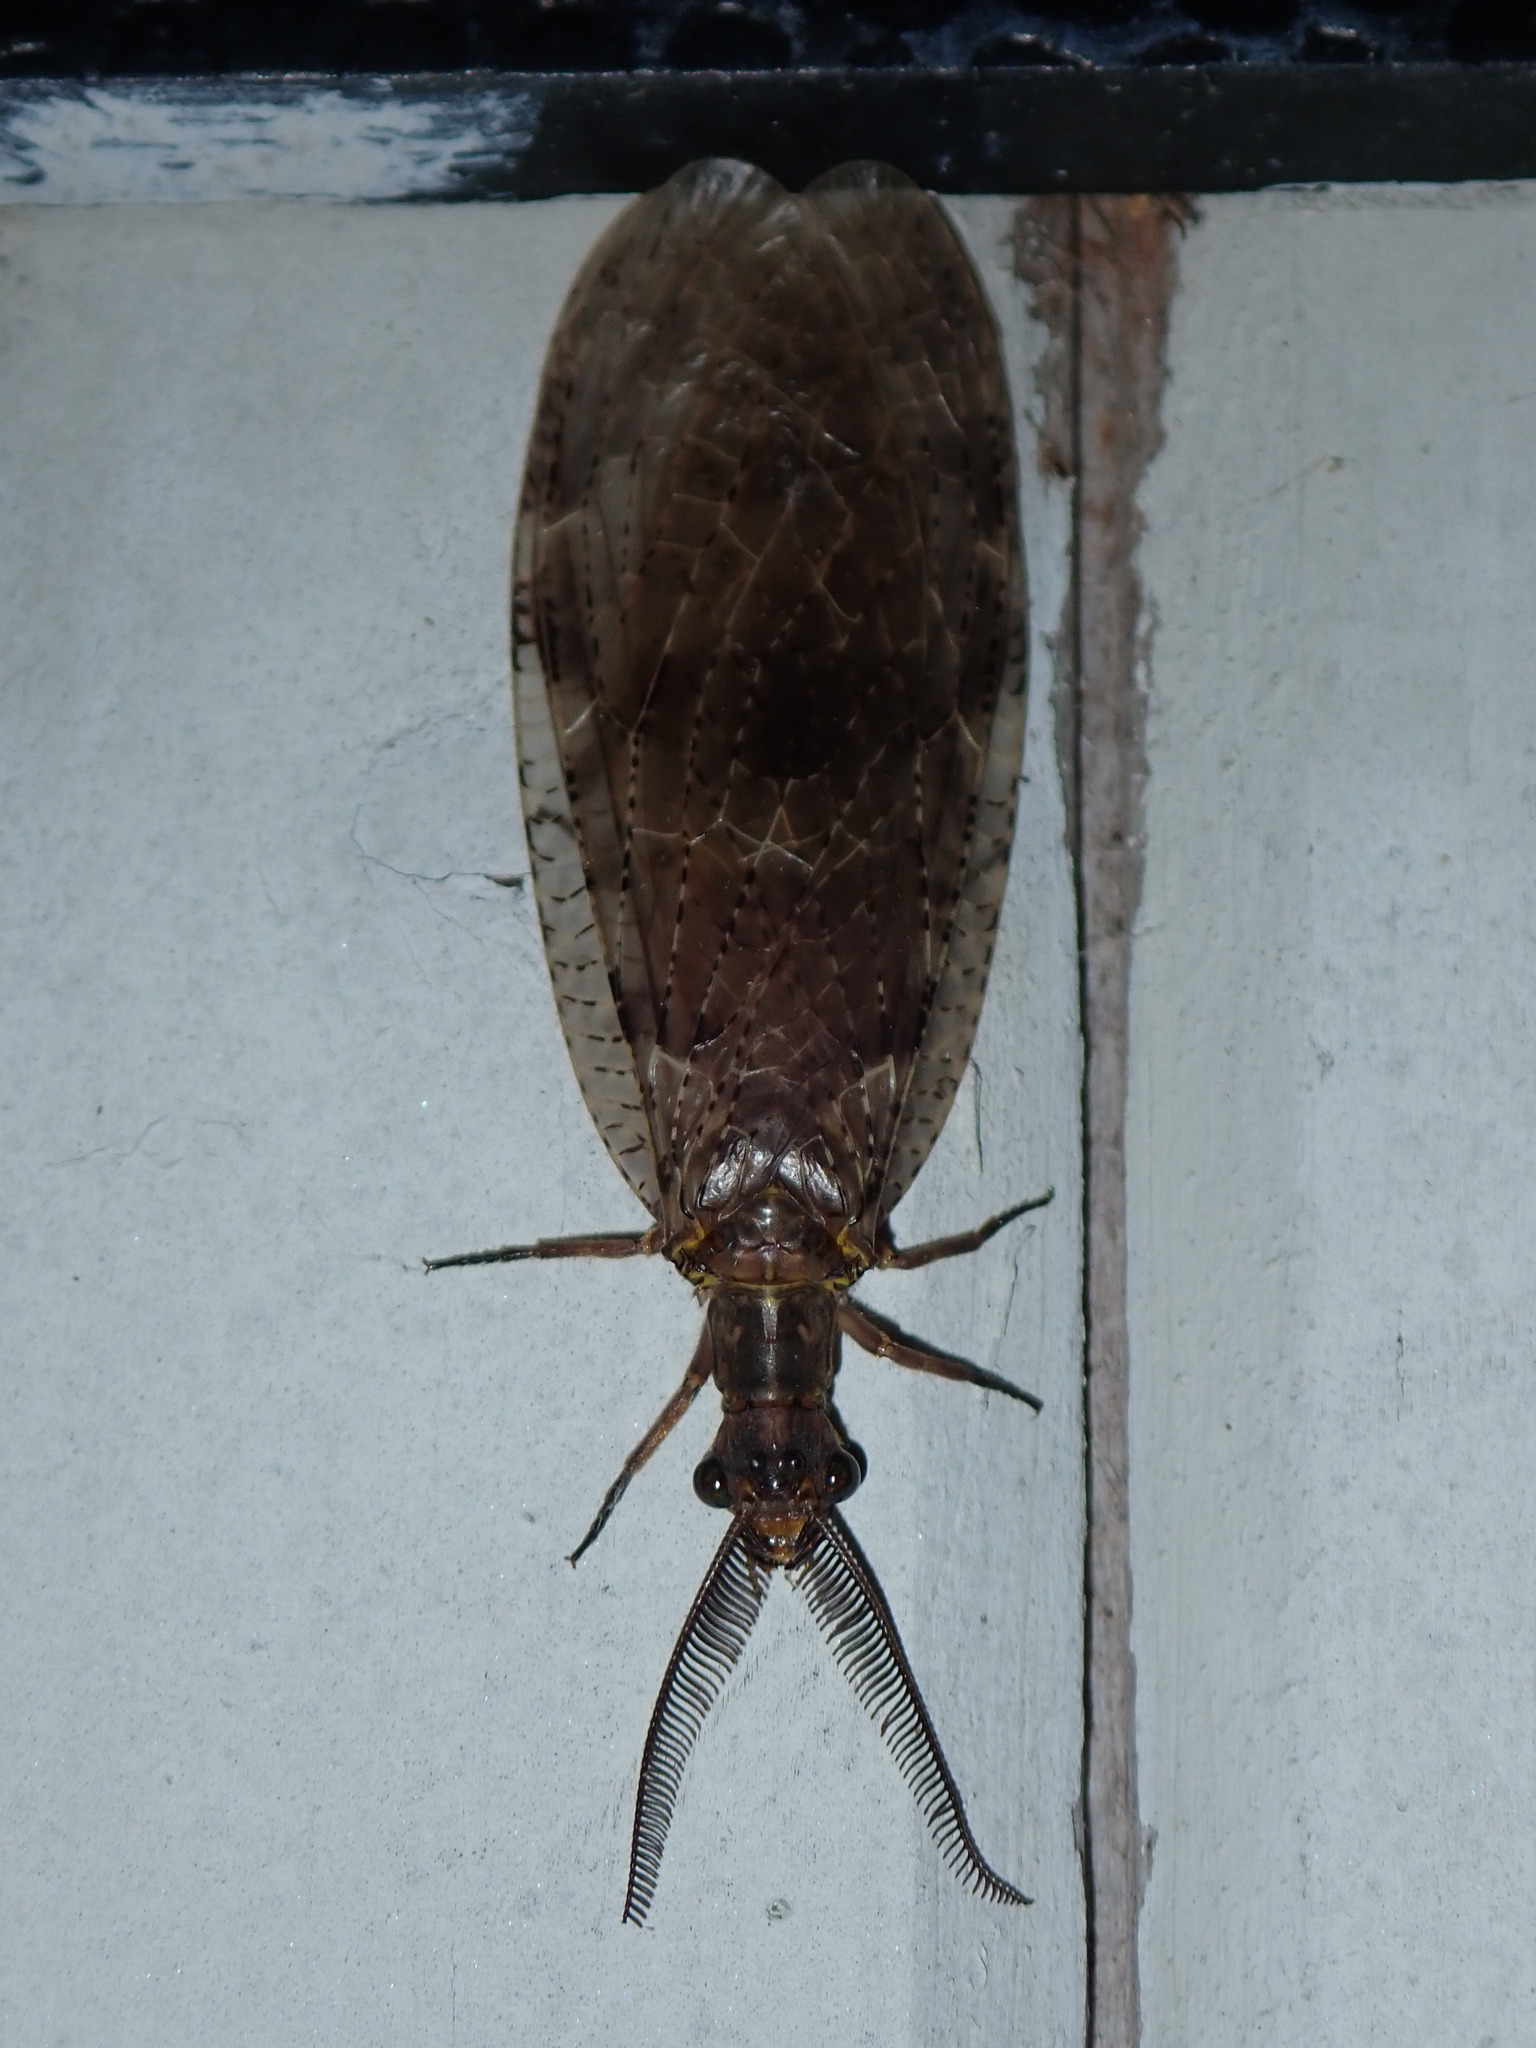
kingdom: Animalia
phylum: Arthropoda
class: Insecta
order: Megaloptera
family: Corydalidae
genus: Chauliodes
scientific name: Chauliodes pectinicornis
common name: Summer fishfly
